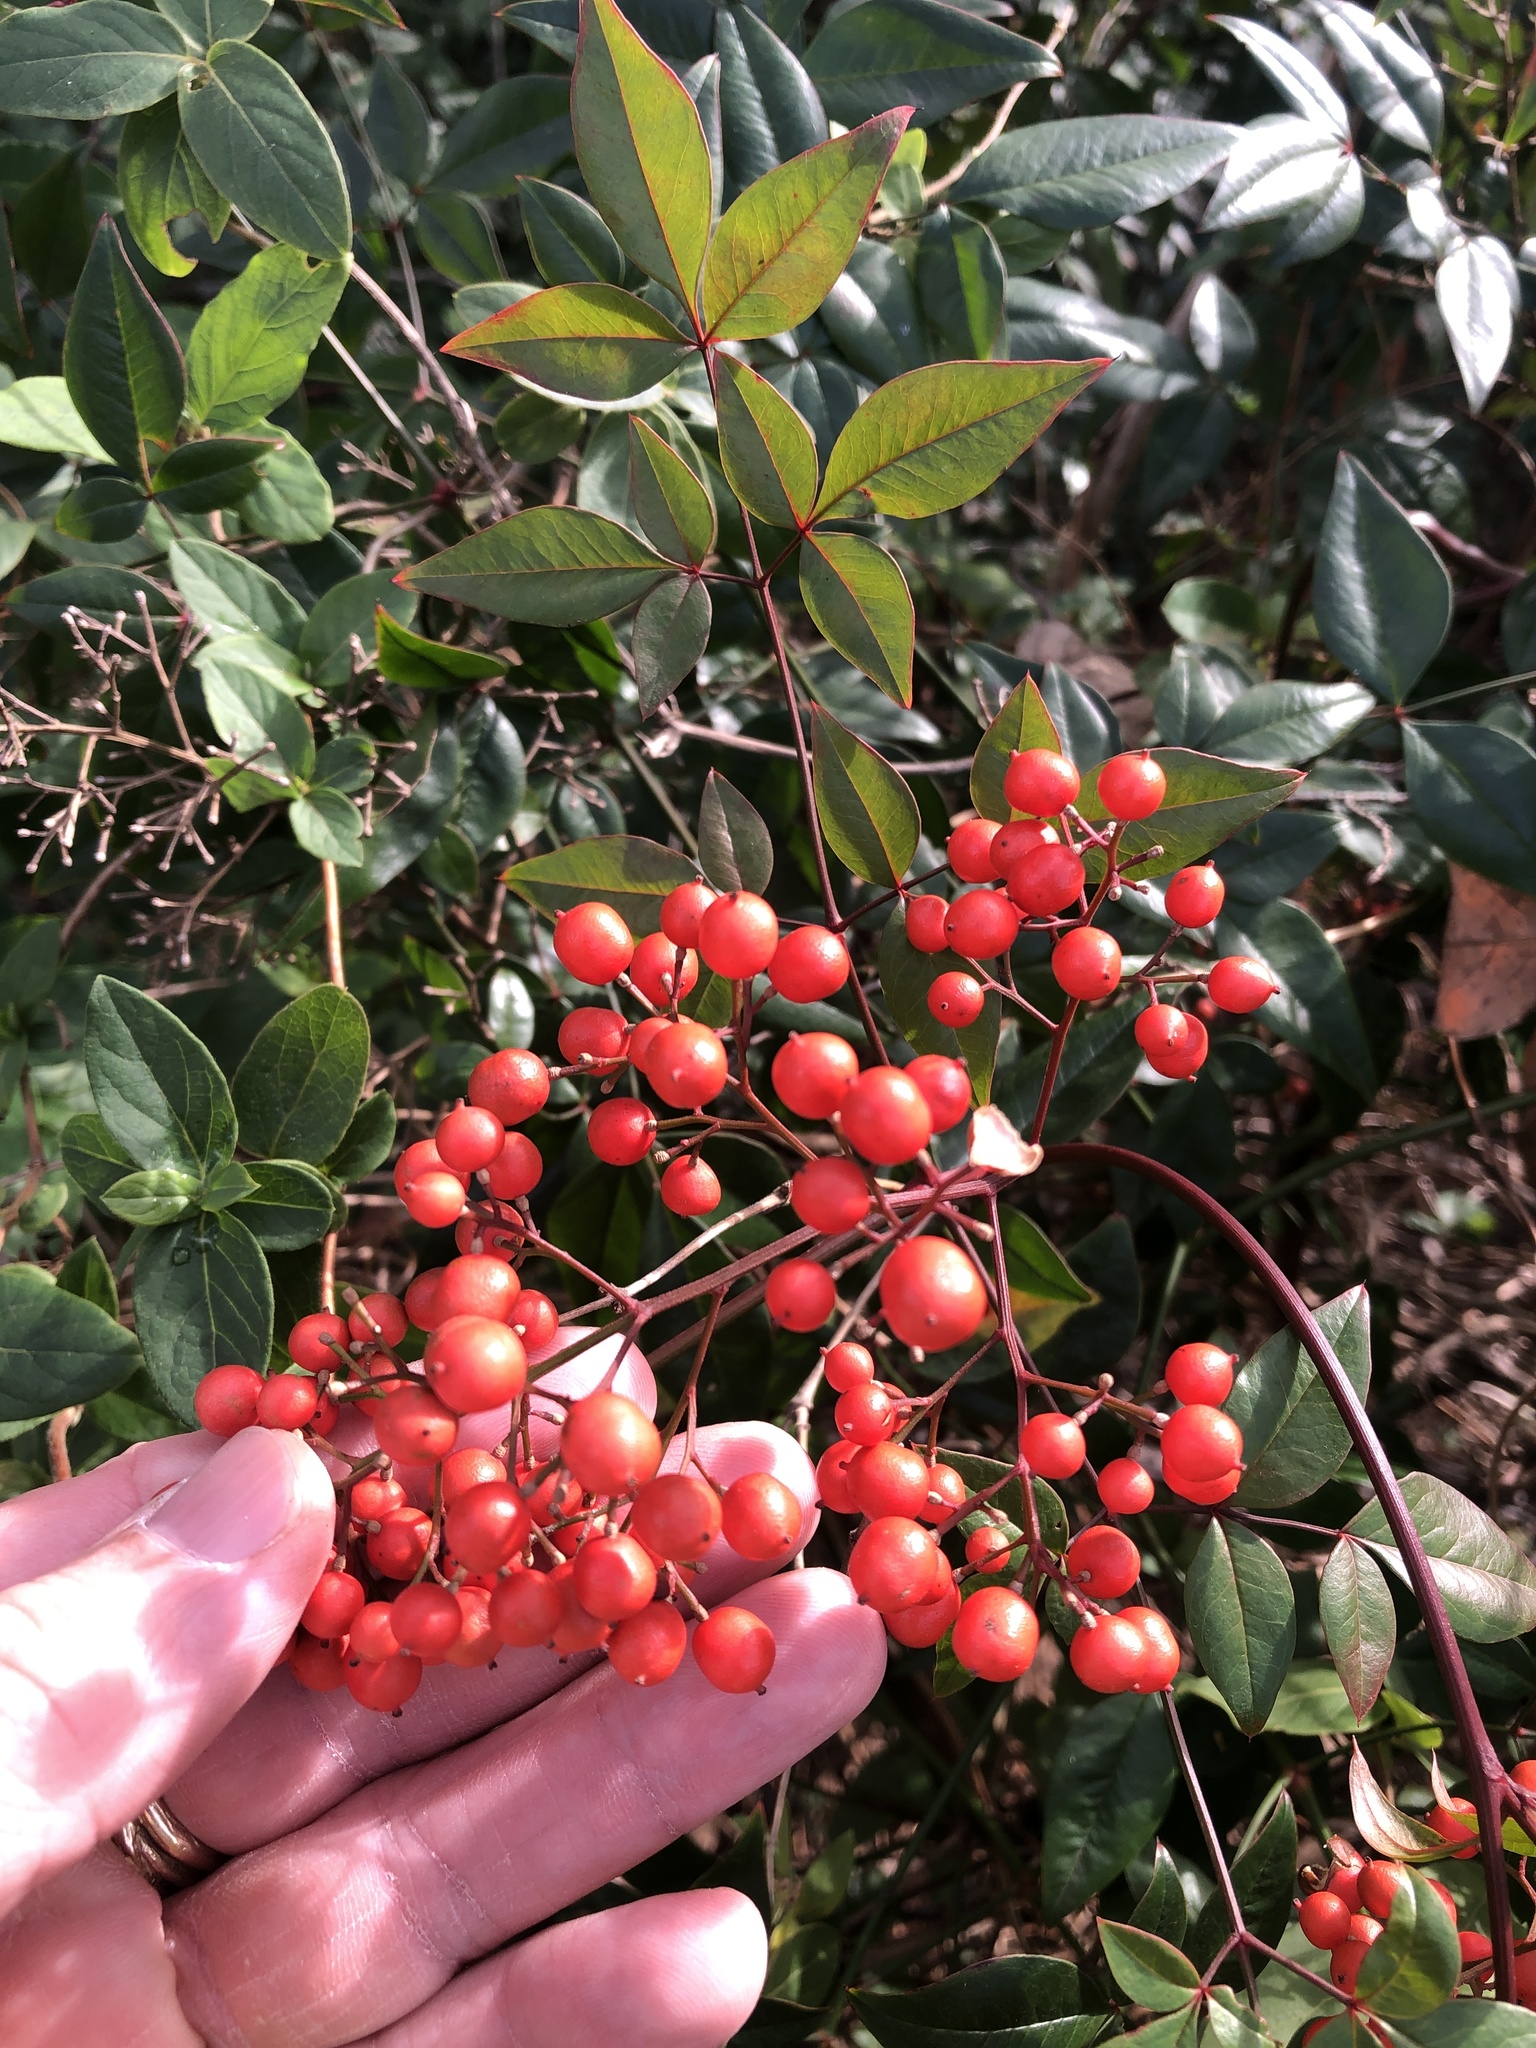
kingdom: Plantae
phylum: Tracheophyta
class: Magnoliopsida
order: Ranunculales
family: Berberidaceae
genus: Nandina
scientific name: Nandina domestica
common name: Sacred bamboo
